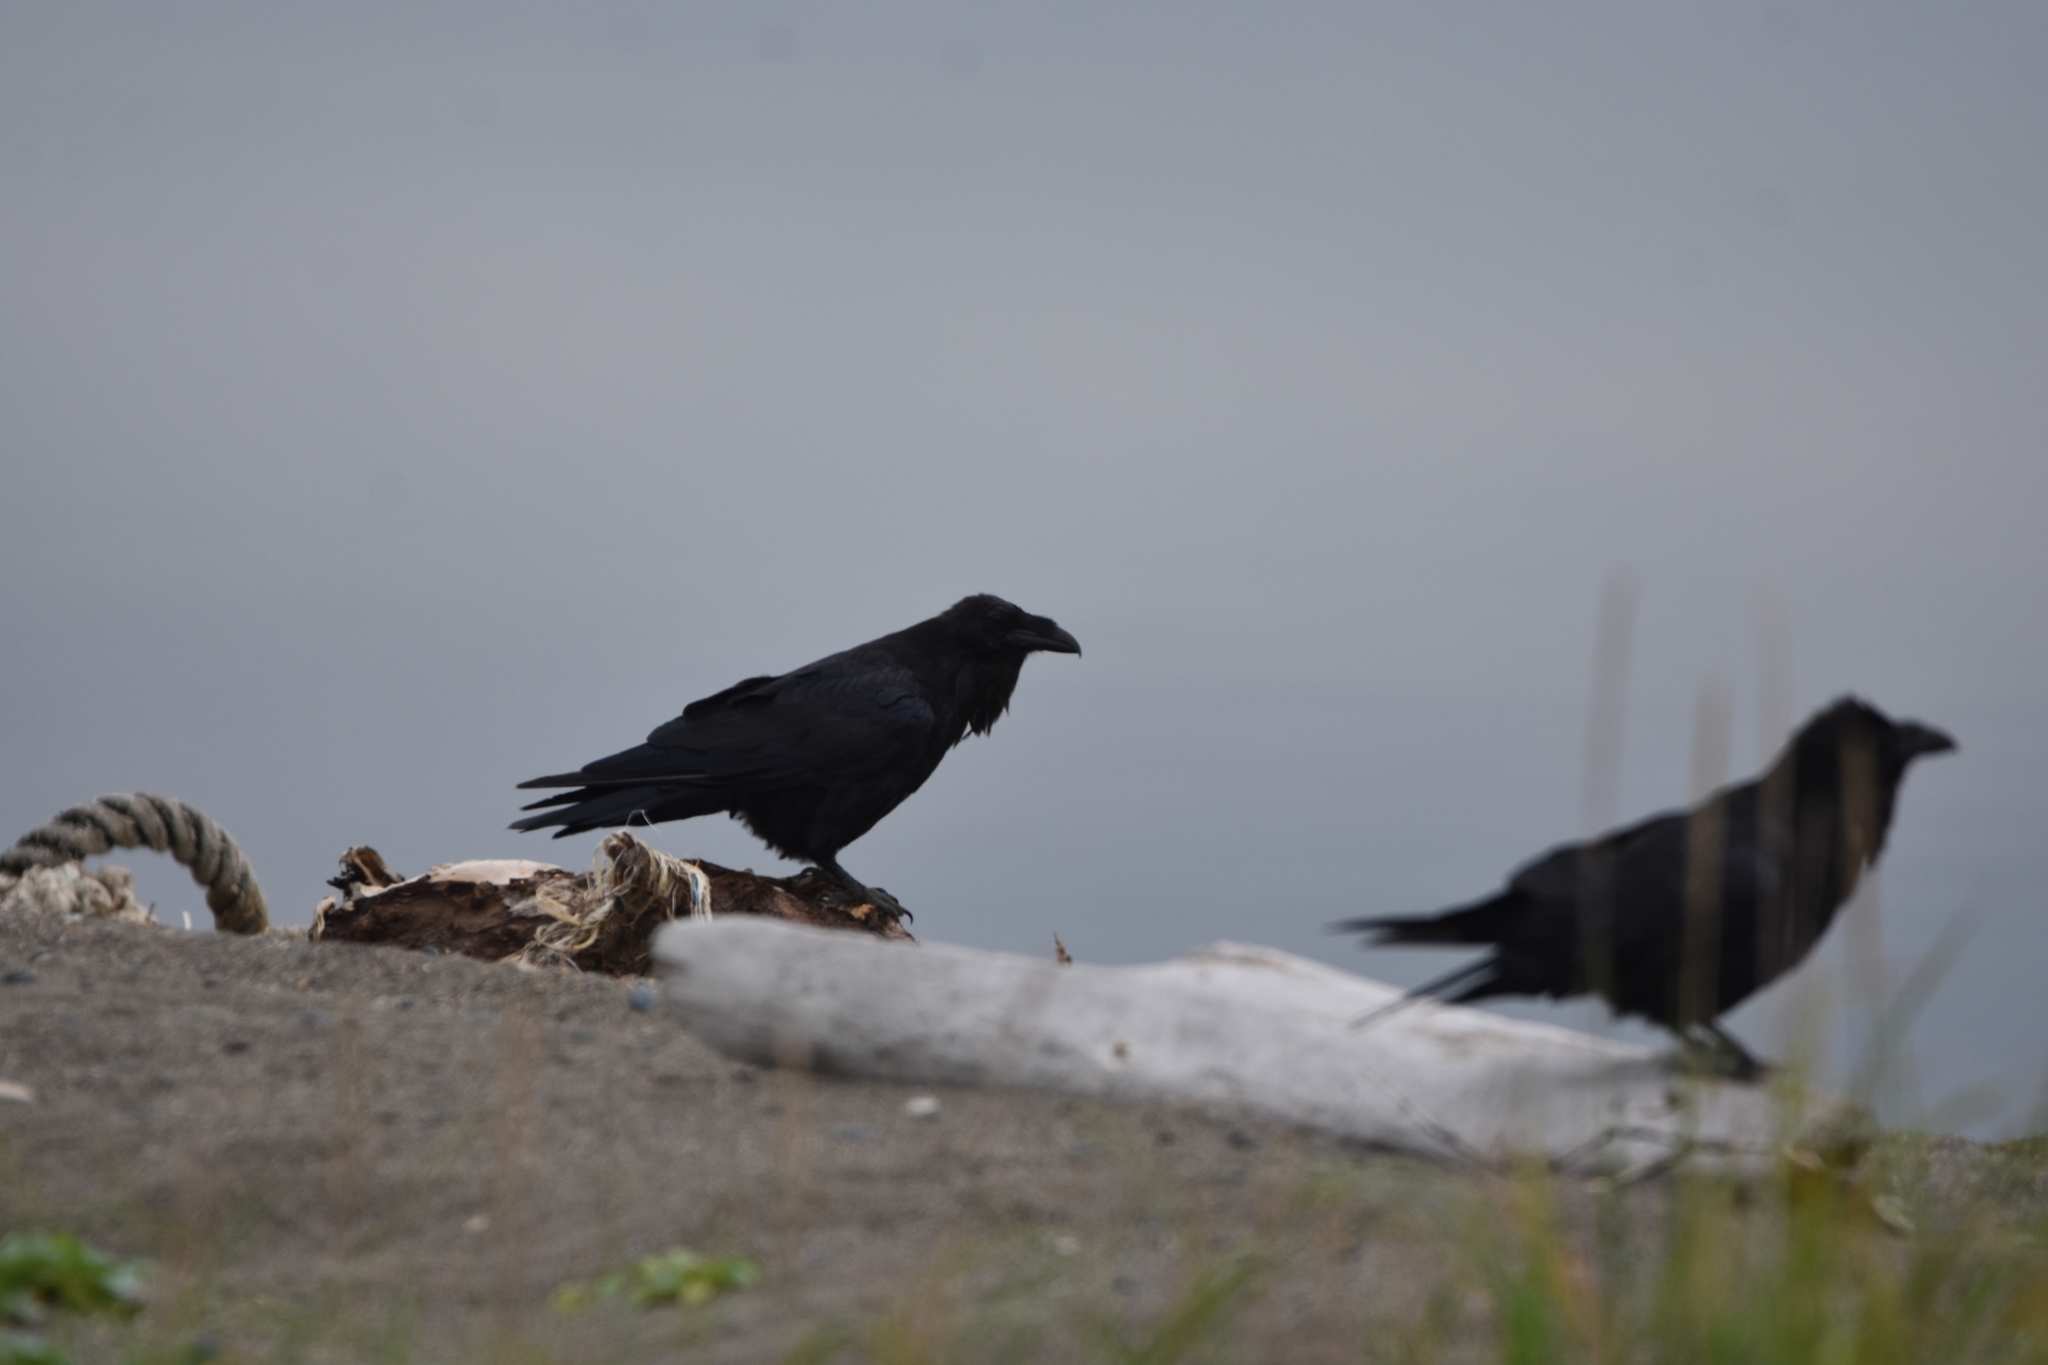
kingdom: Animalia
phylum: Chordata
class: Aves
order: Passeriformes
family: Corvidae
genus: Corvus
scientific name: Corvus corax
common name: Common raven
